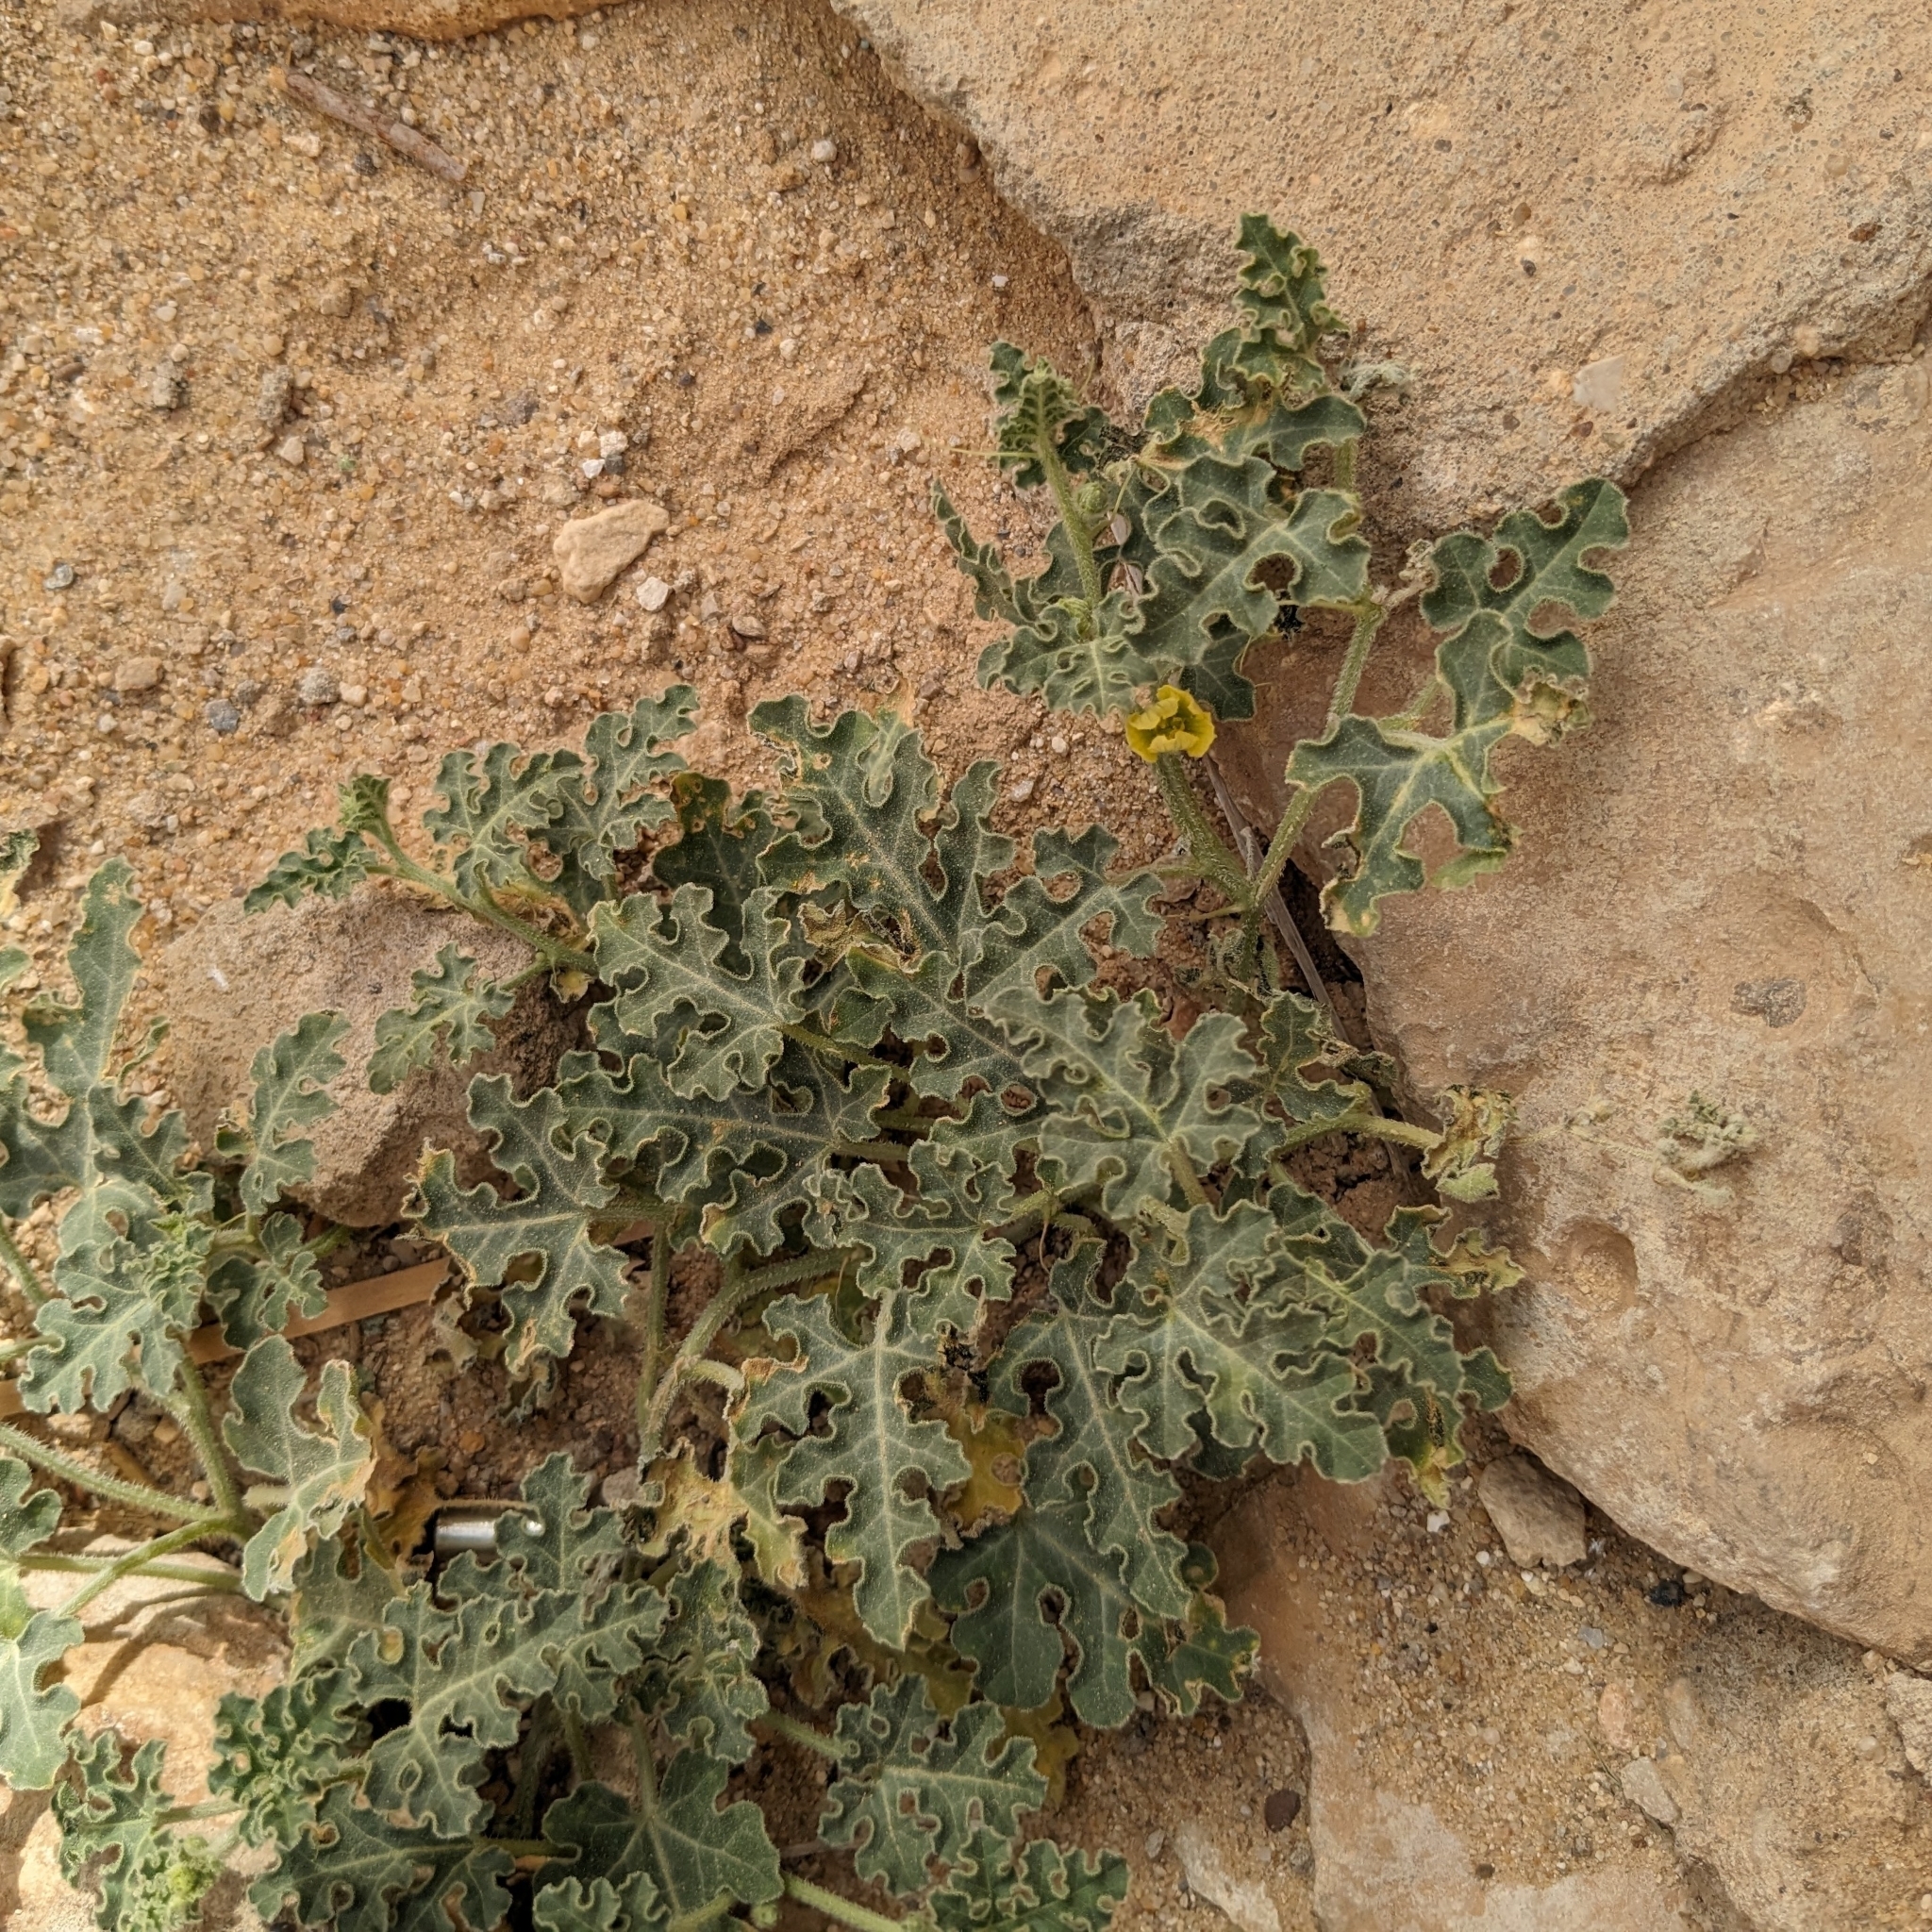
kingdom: Plantae
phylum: Tracheophyta
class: Magnoliopsida
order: Cucurbitales
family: Cucurbitaceae
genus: Citrullus
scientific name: Citrullus colocynthis
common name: Colocynth
